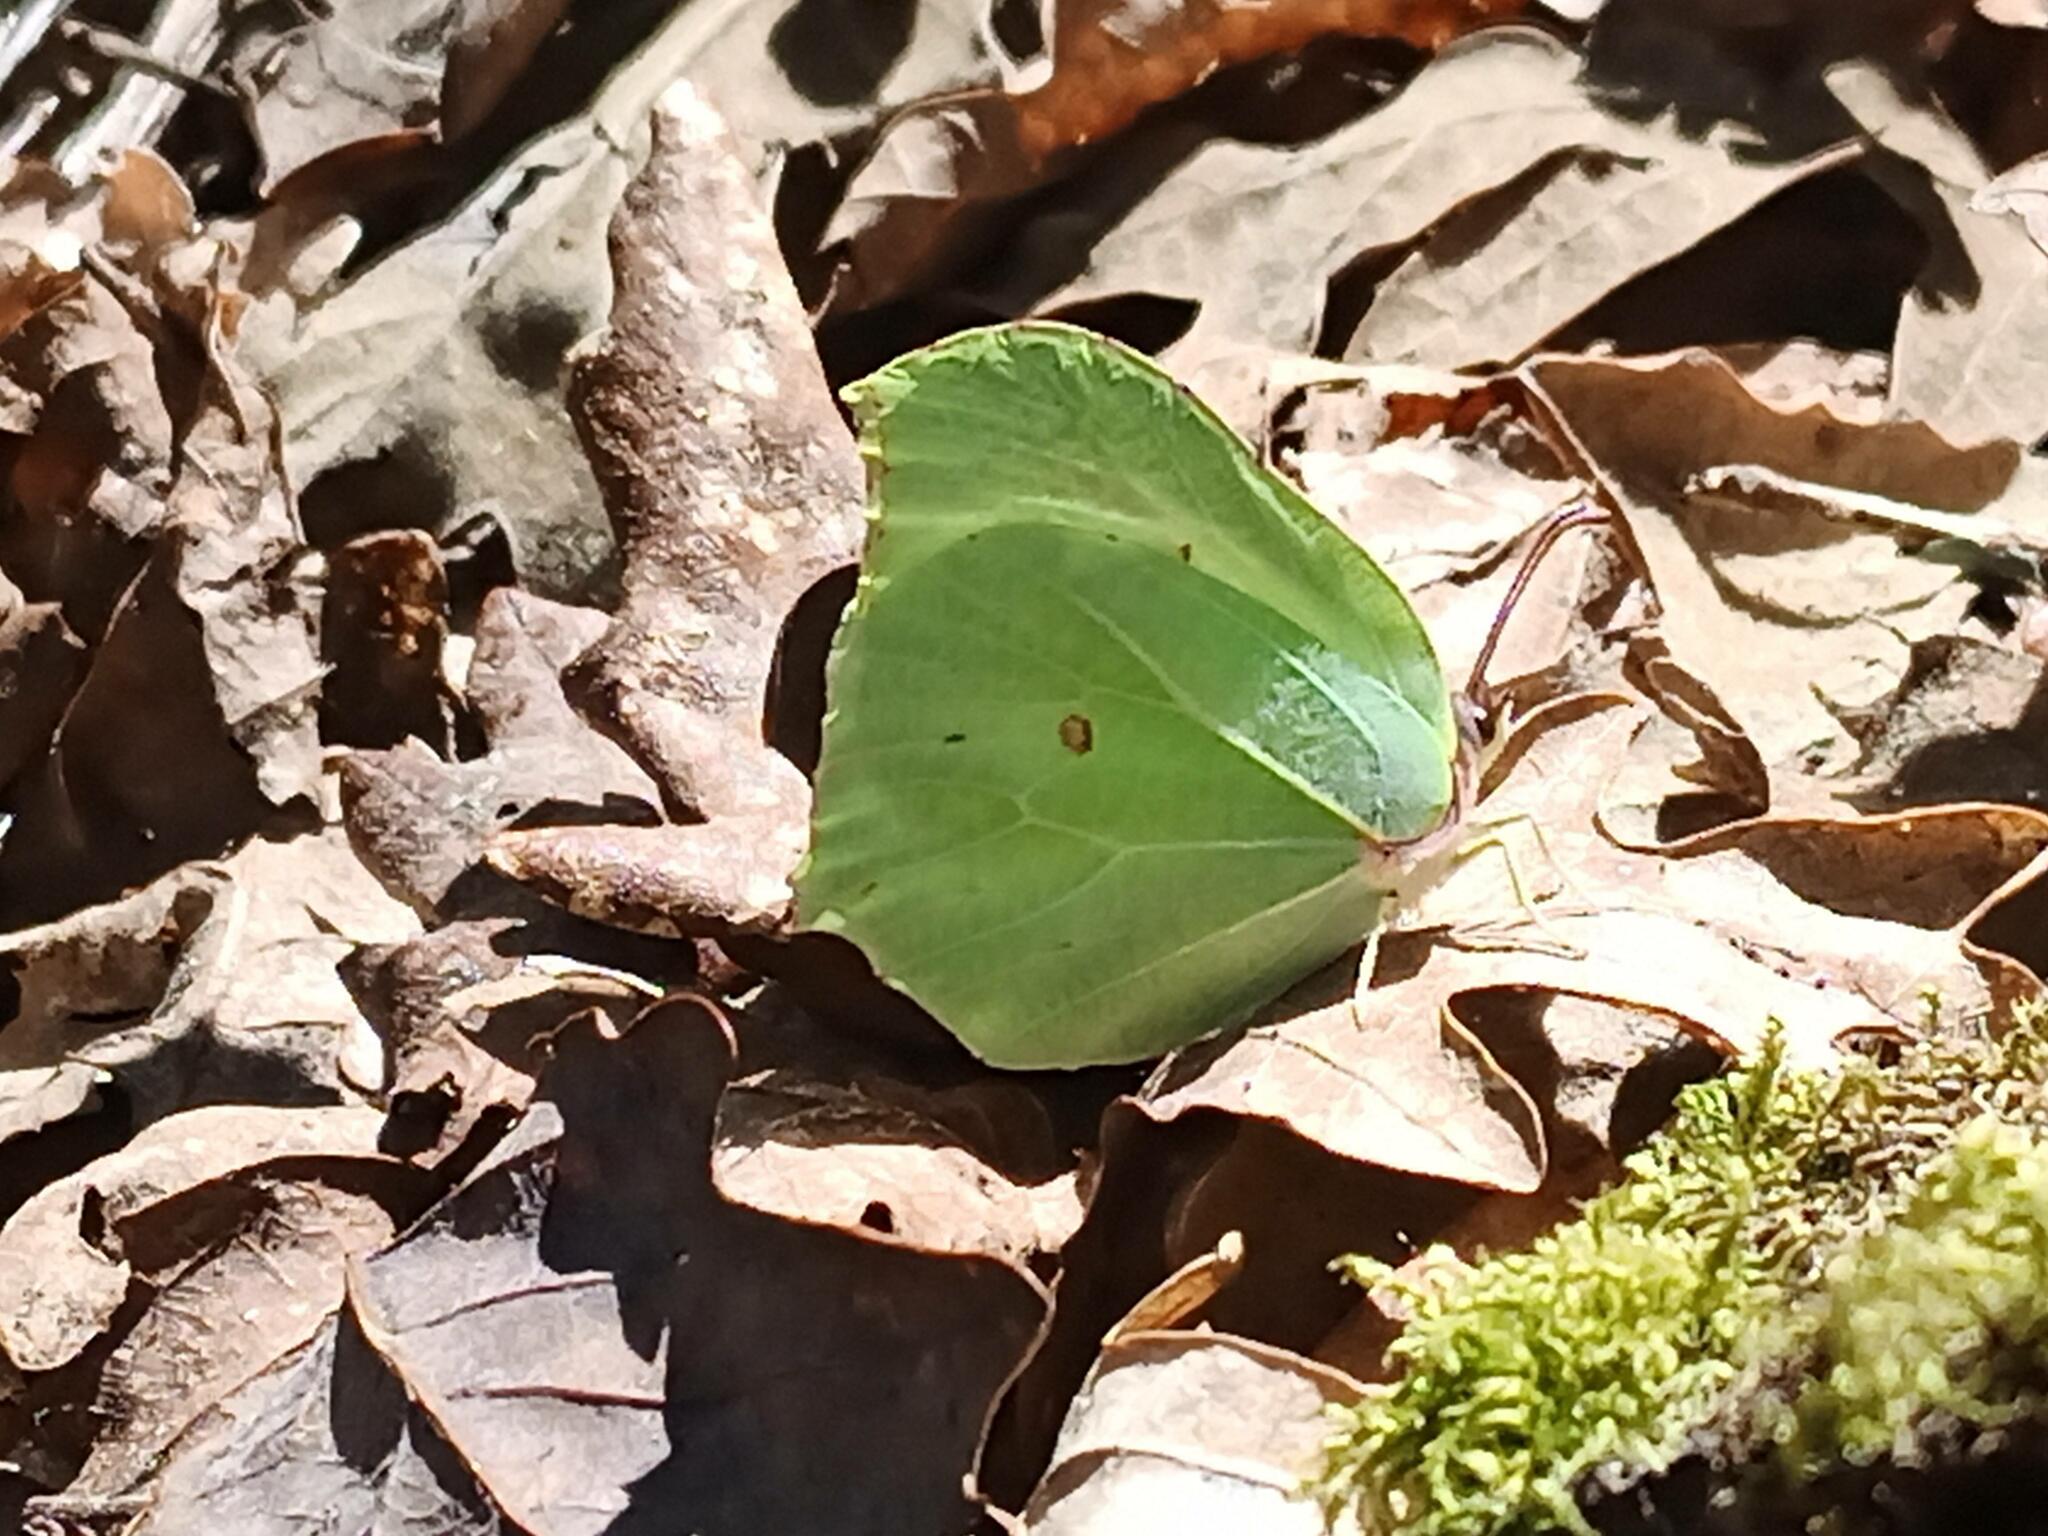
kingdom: Animalia
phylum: Arthropoda
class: Insecta
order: Lepidoptera
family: Pieridae
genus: Gonepteryx
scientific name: Gonepteryx rhamni
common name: Brimstone
